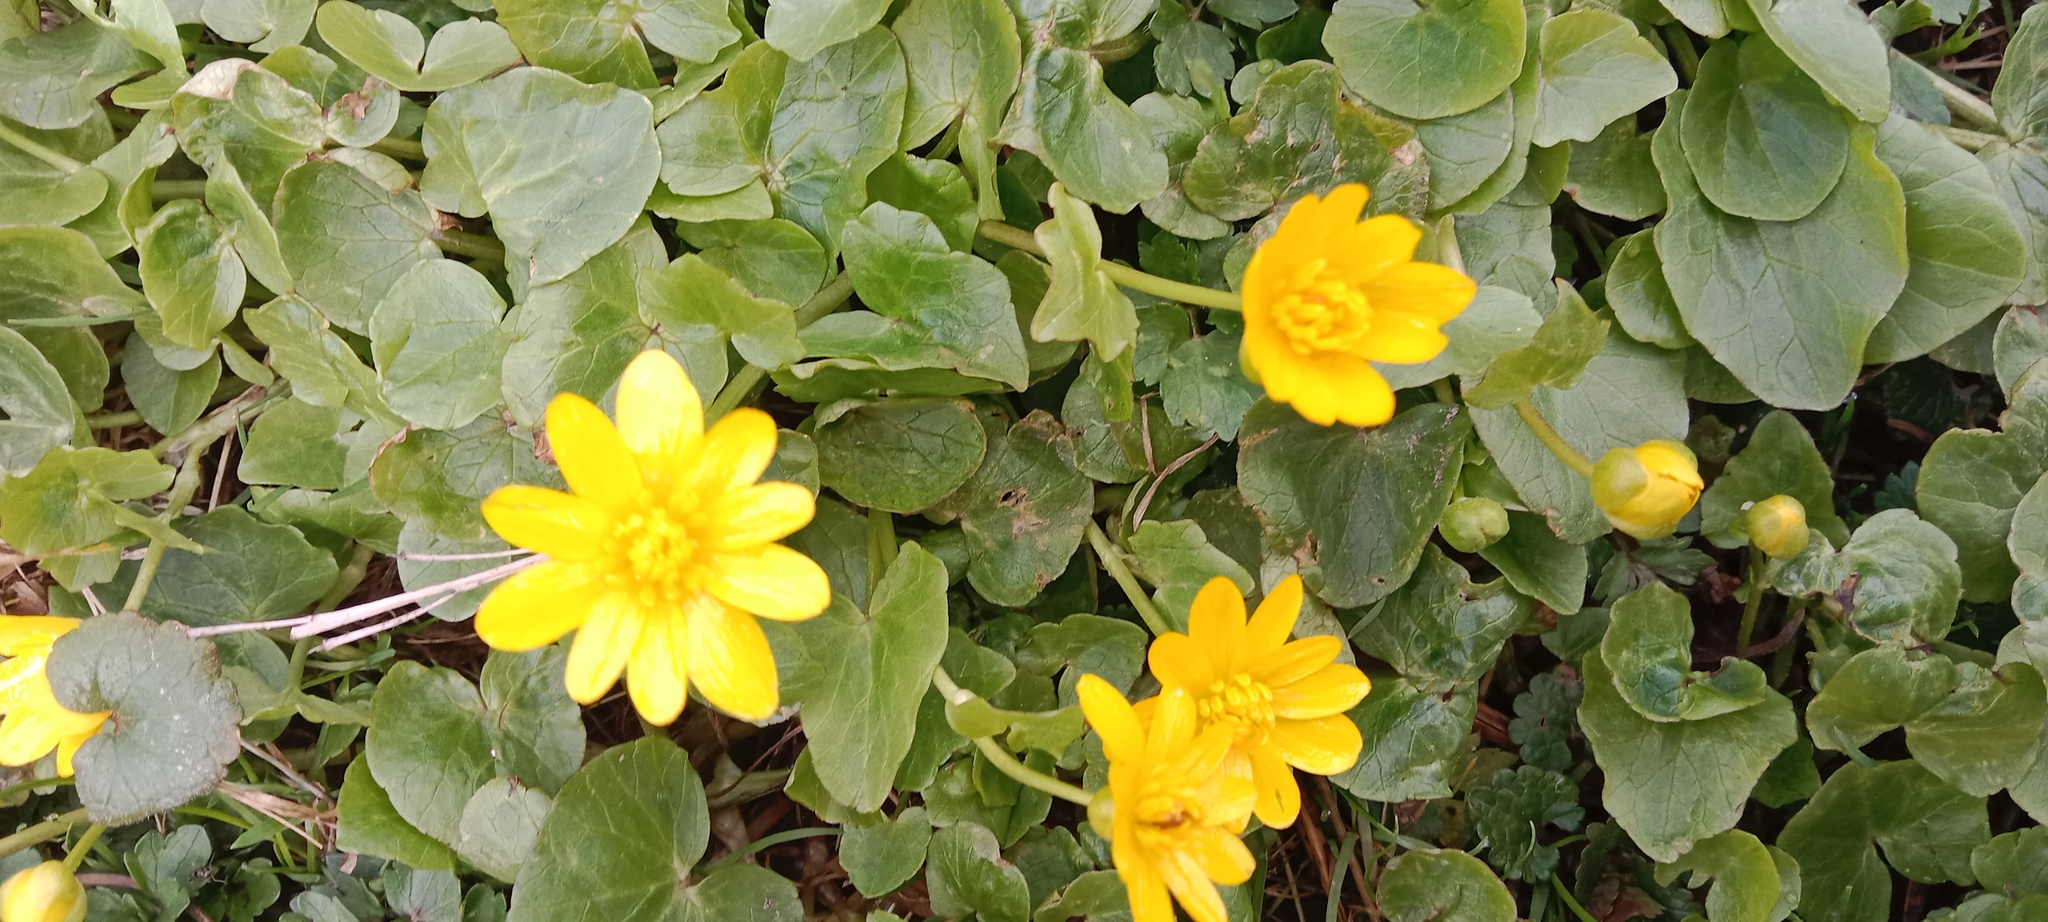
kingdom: Plantae
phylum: Tracheophyta
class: Magnoliopsida
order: Ranunculales
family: Ranunculaceae
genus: Ficaria
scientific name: Ficaria verna
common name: Lesser celandine
